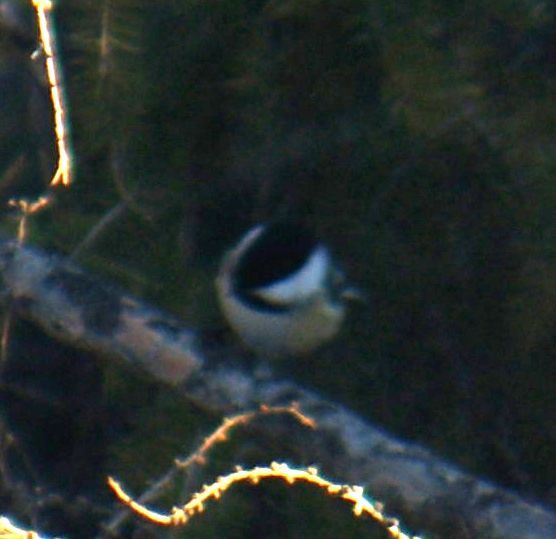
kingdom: Animalia
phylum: Chordata
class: Aves
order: Passeriformes
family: Paridae
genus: Poecile
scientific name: Poecile atricapillus
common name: Black-capped chickadee
